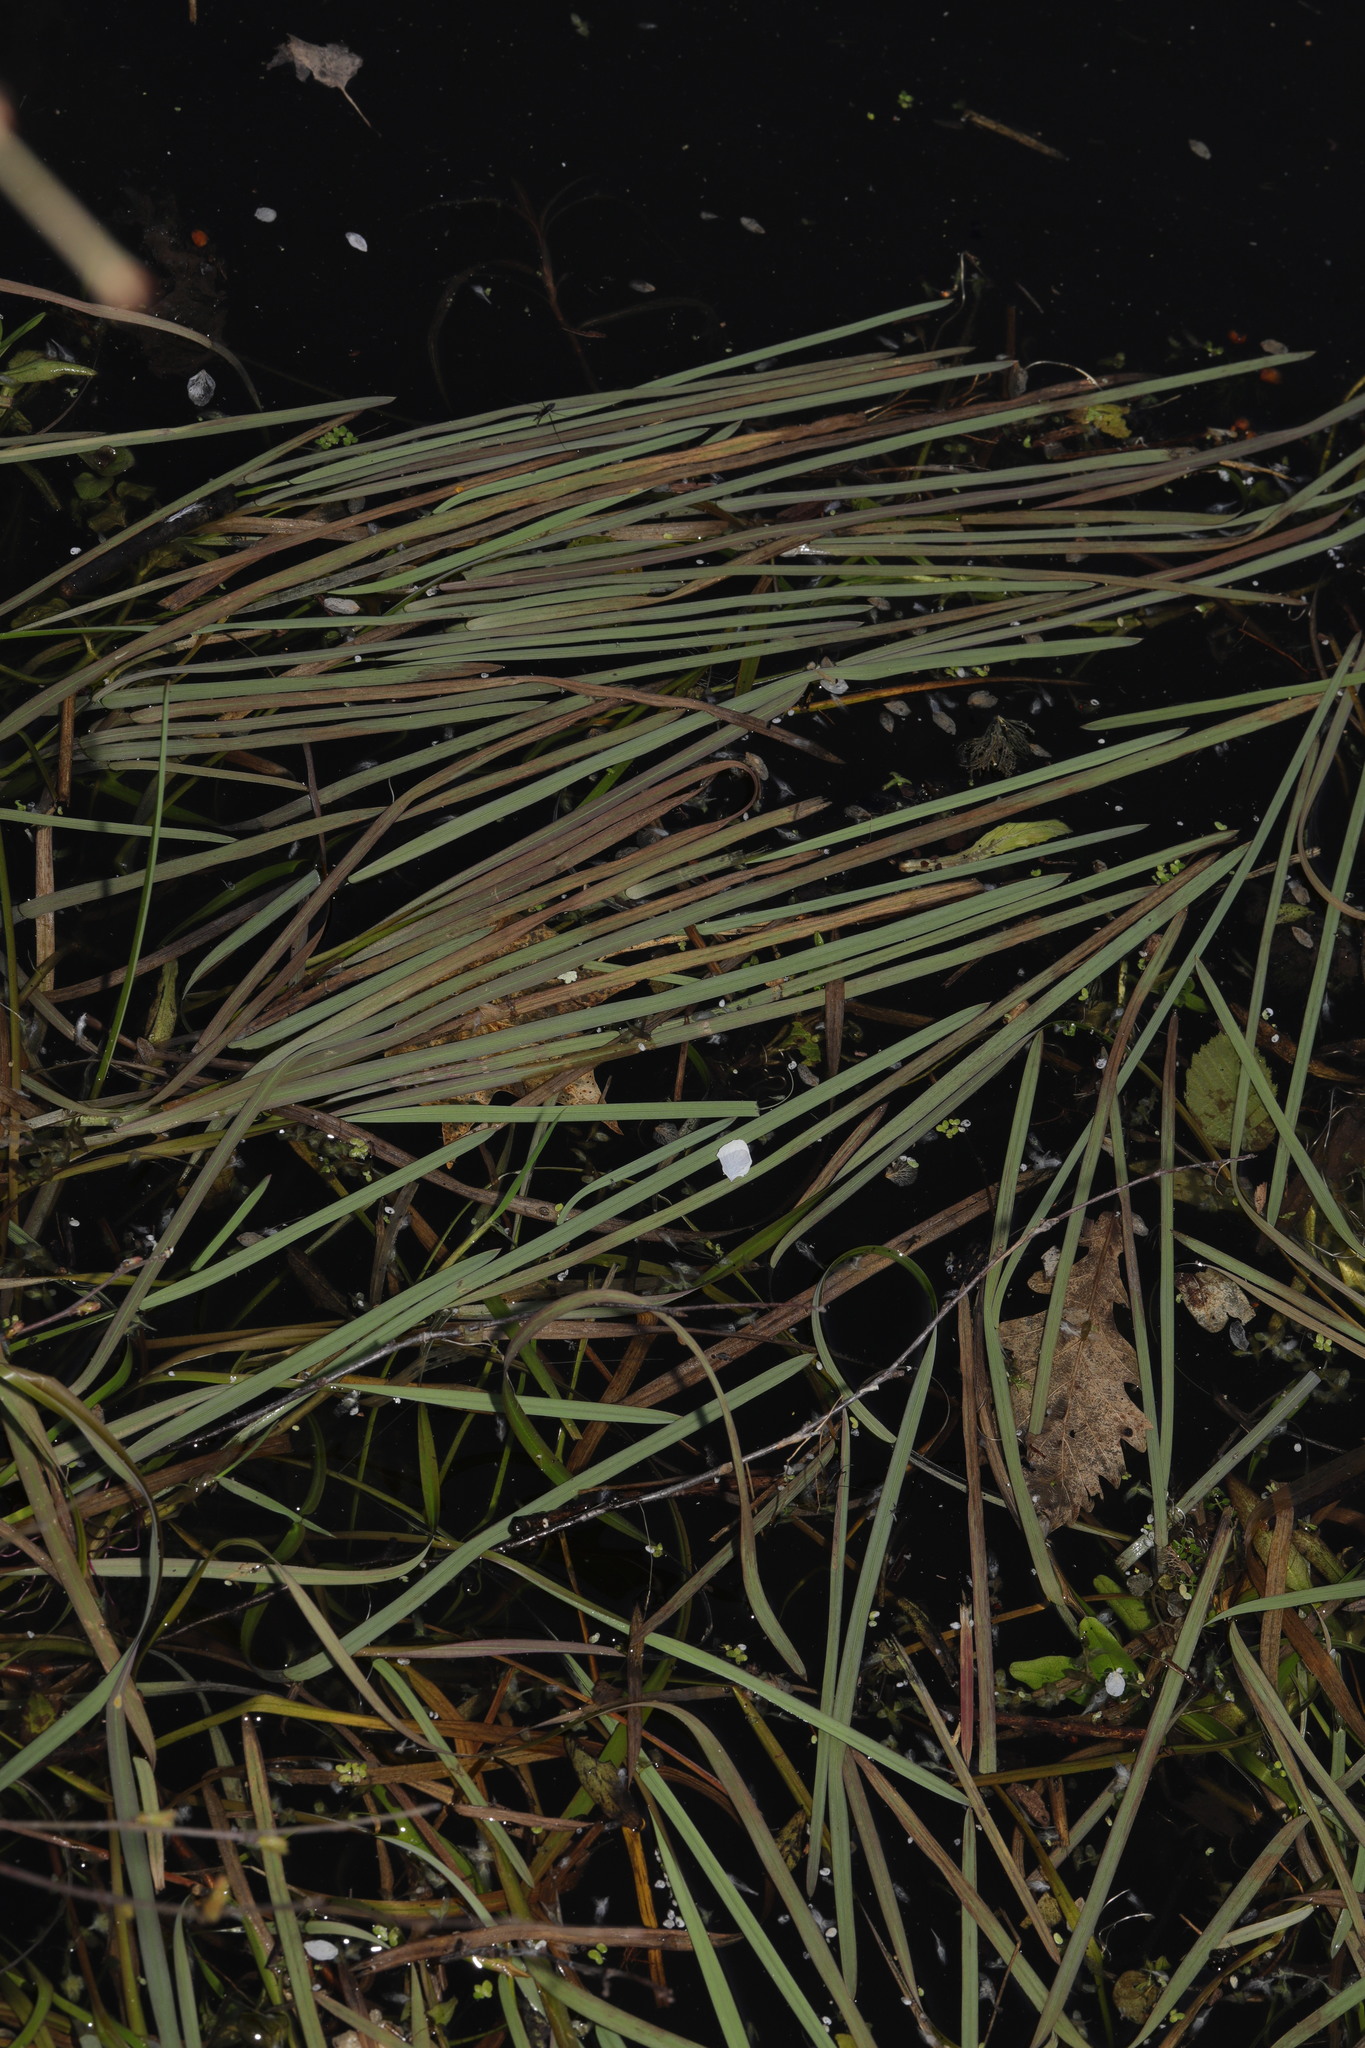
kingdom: Plantae
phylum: Tracheophyta
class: Liliopsida
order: Poales
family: Poaceae
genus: Glyceria
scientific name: Glyceria fluitans
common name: Floating sweet-grass
